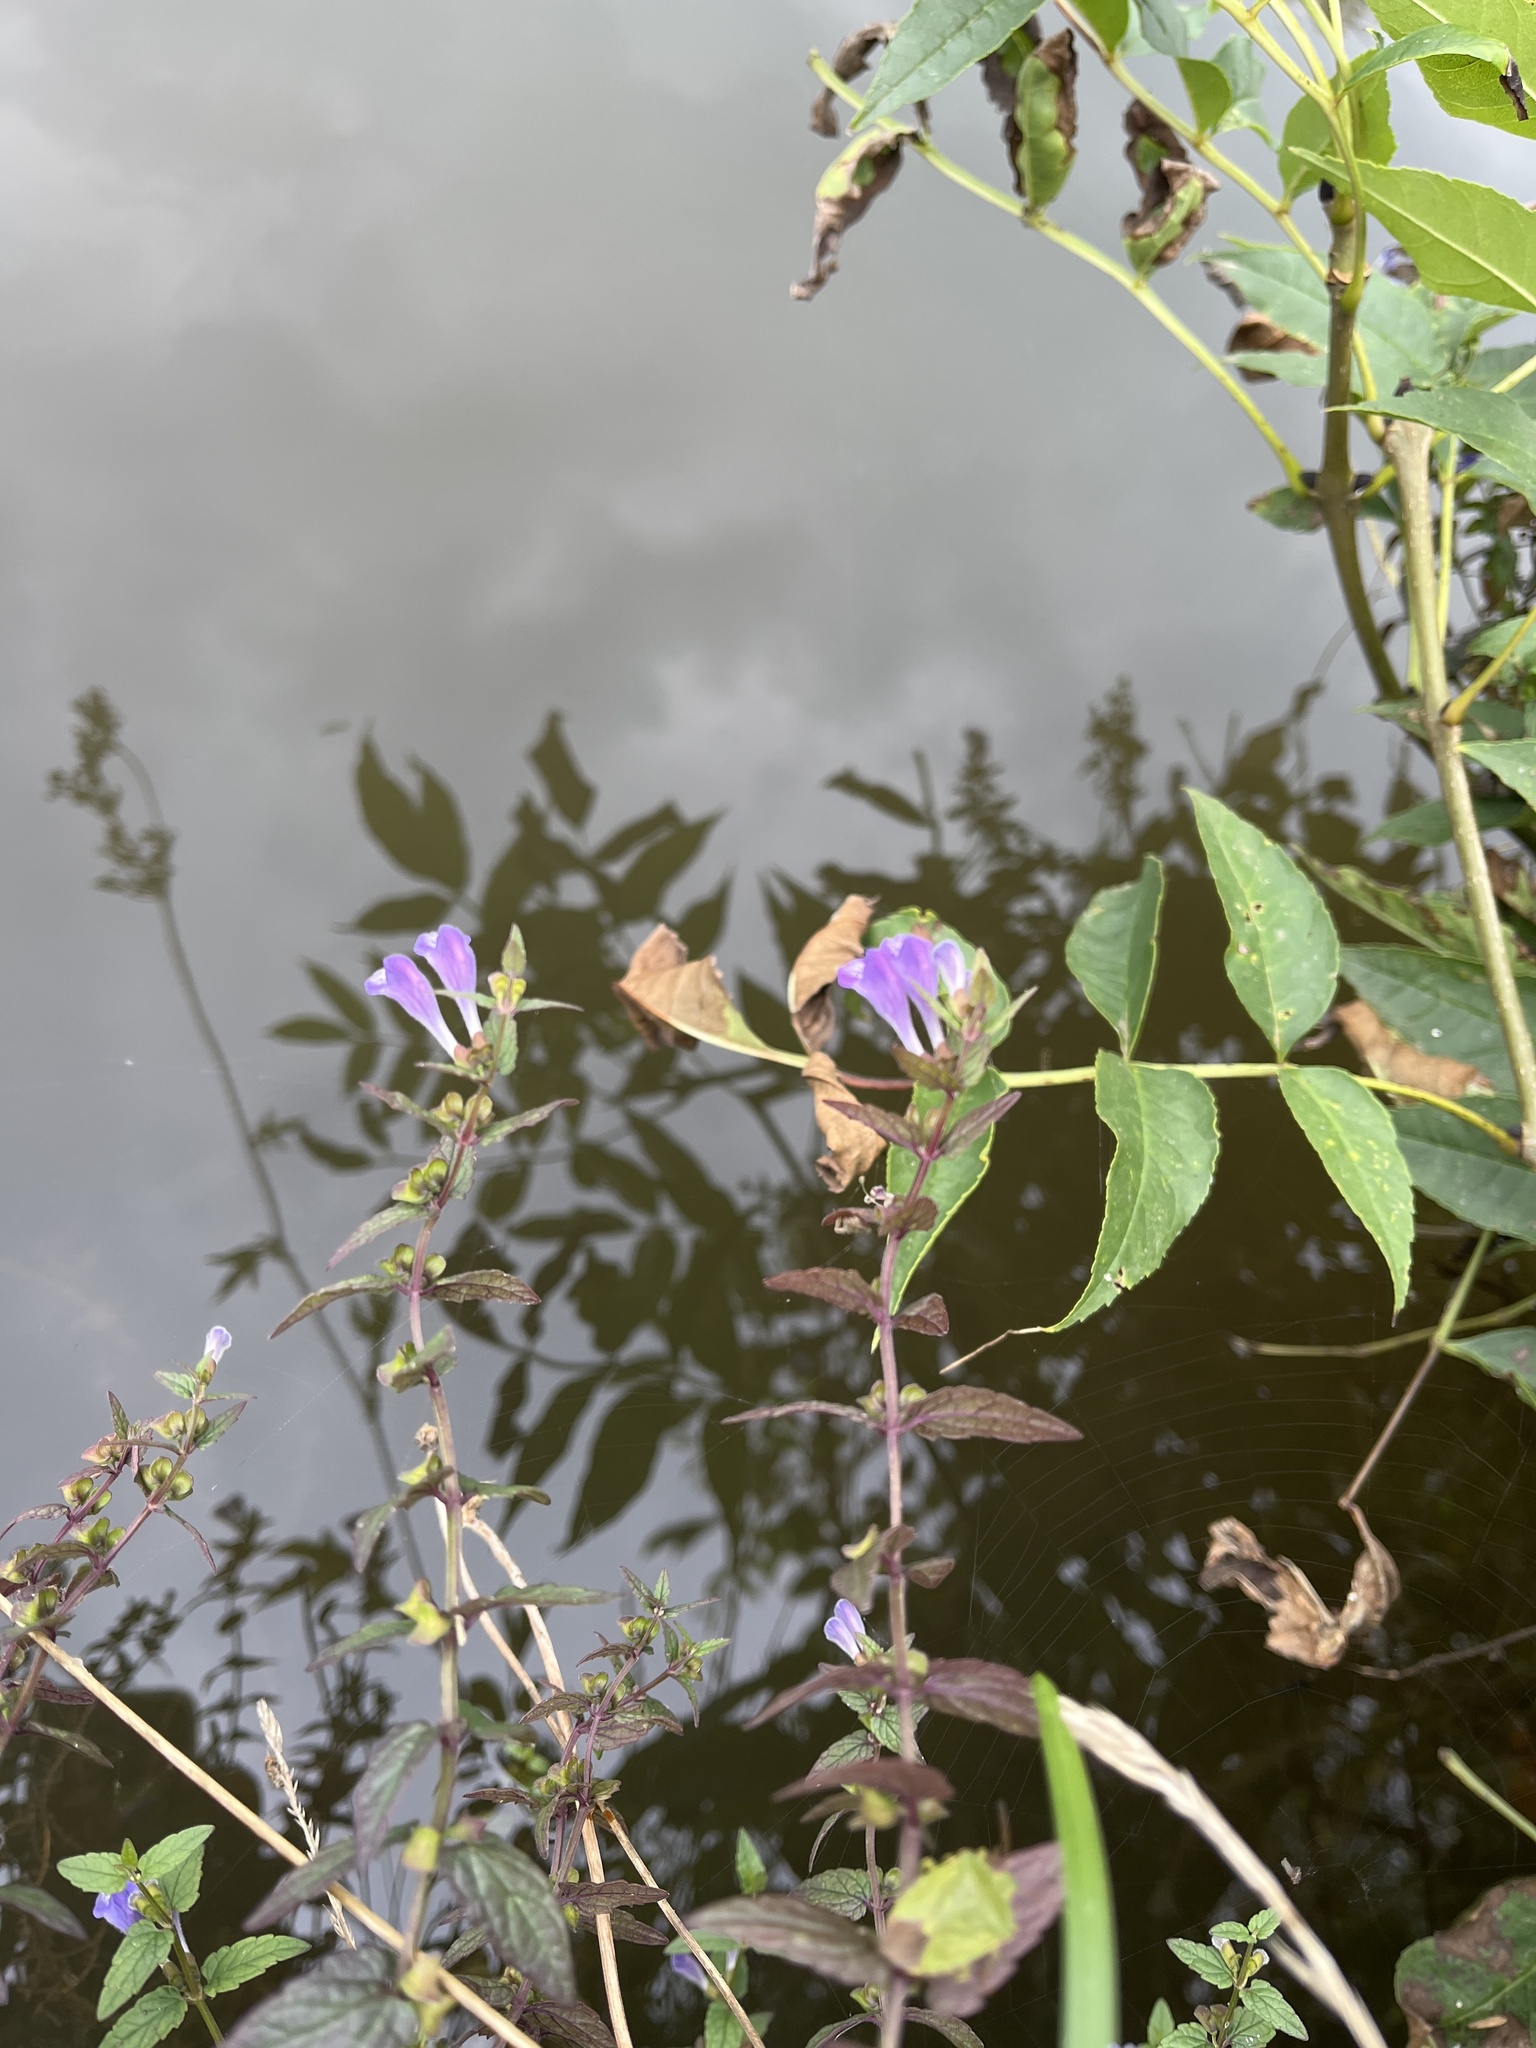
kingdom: Plantae
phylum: Tracheophyta
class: Magnoliopsida
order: Lamiales
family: Lamiaceae
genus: Scutellaria
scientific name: Scutellaria galericulata
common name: Skullcap
